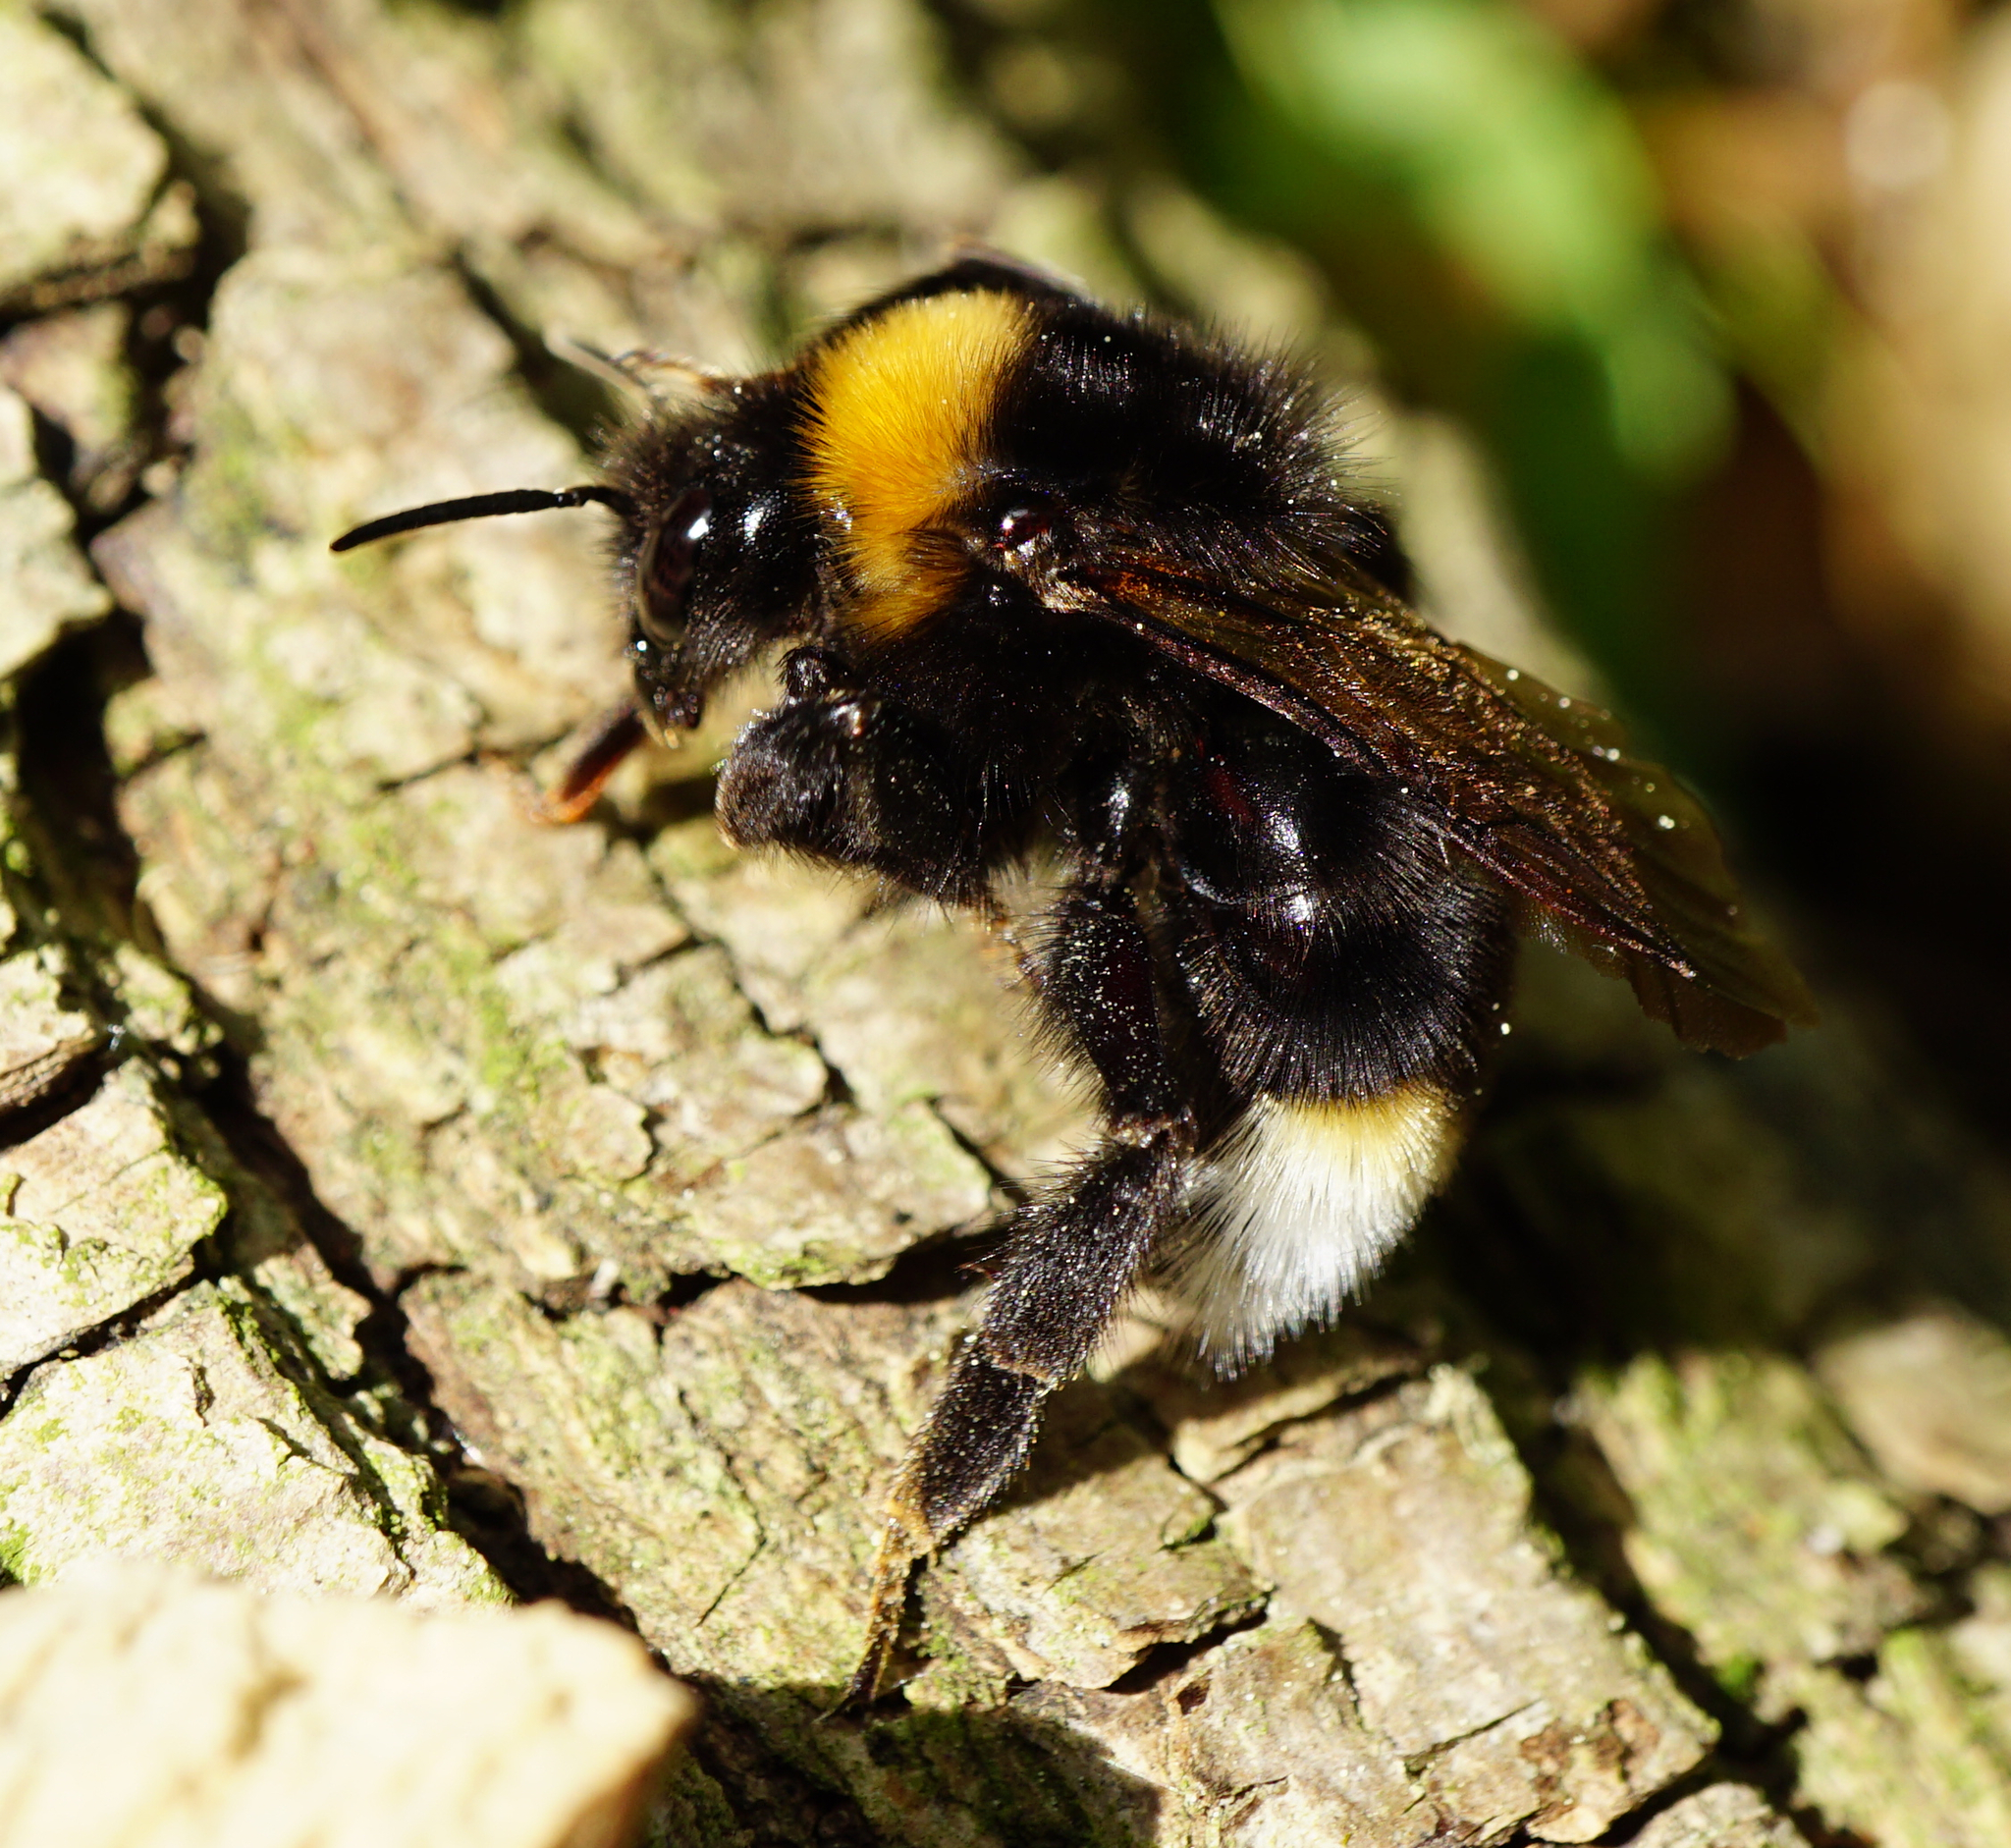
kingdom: Animalia
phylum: Arthropoda
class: Insecta
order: Hymenoptera
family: Apidae
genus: Bombus
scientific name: Bombus
